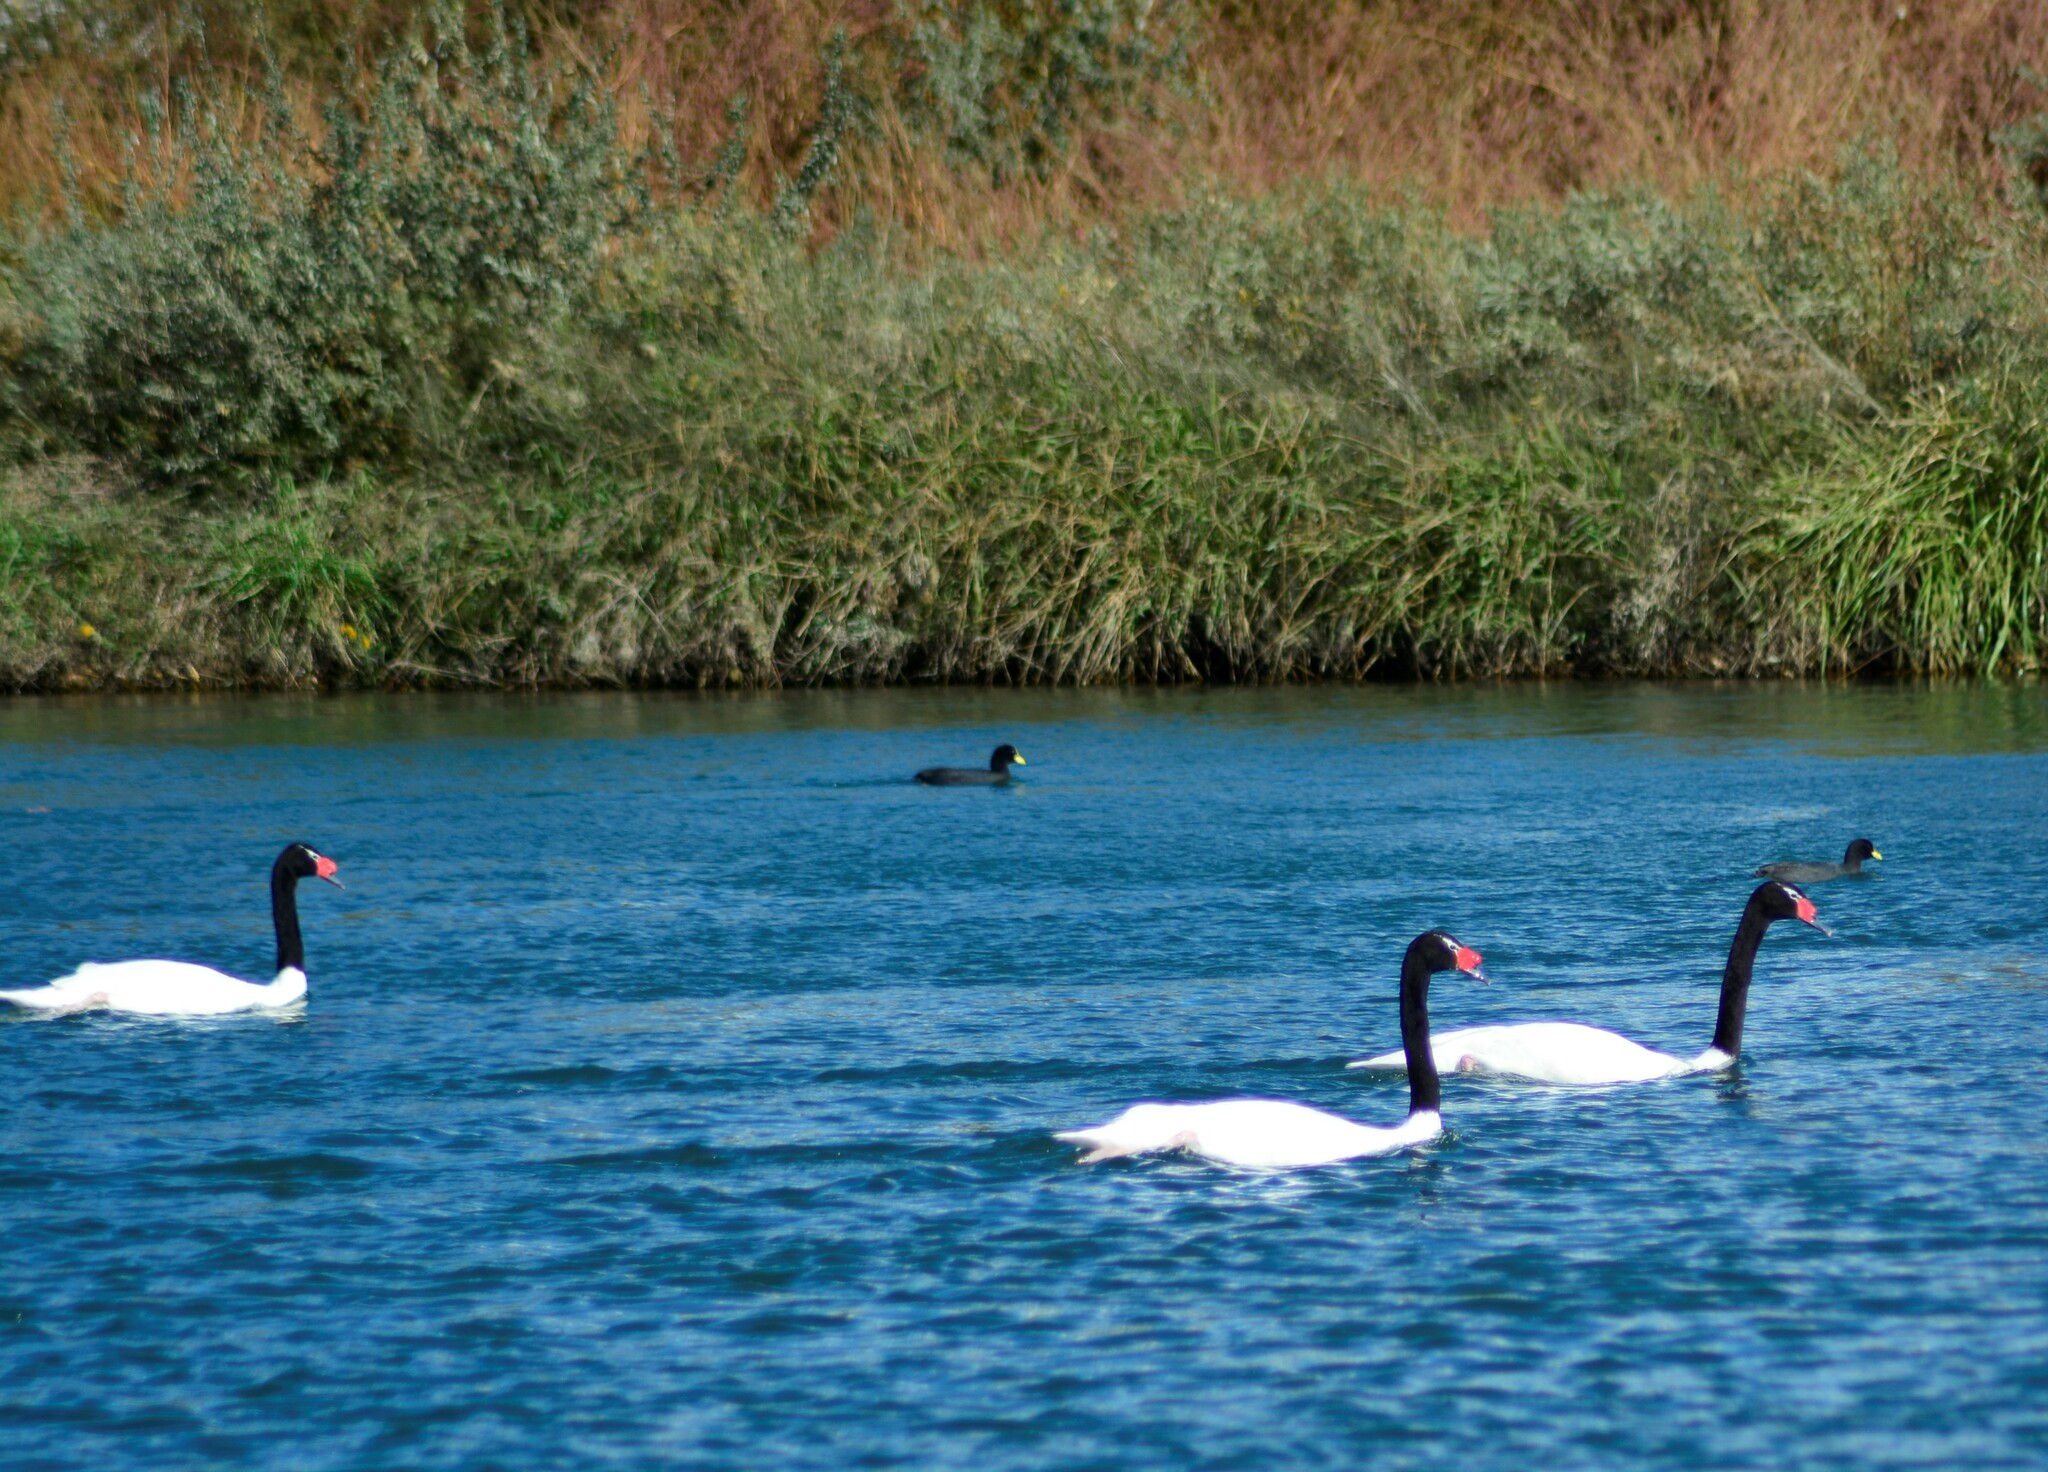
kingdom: Animalia
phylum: Chordata
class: Aves
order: Anseriformes
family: Anatidae
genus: Cygnus
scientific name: Cygnus melancoryphus
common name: Black-necked swan
